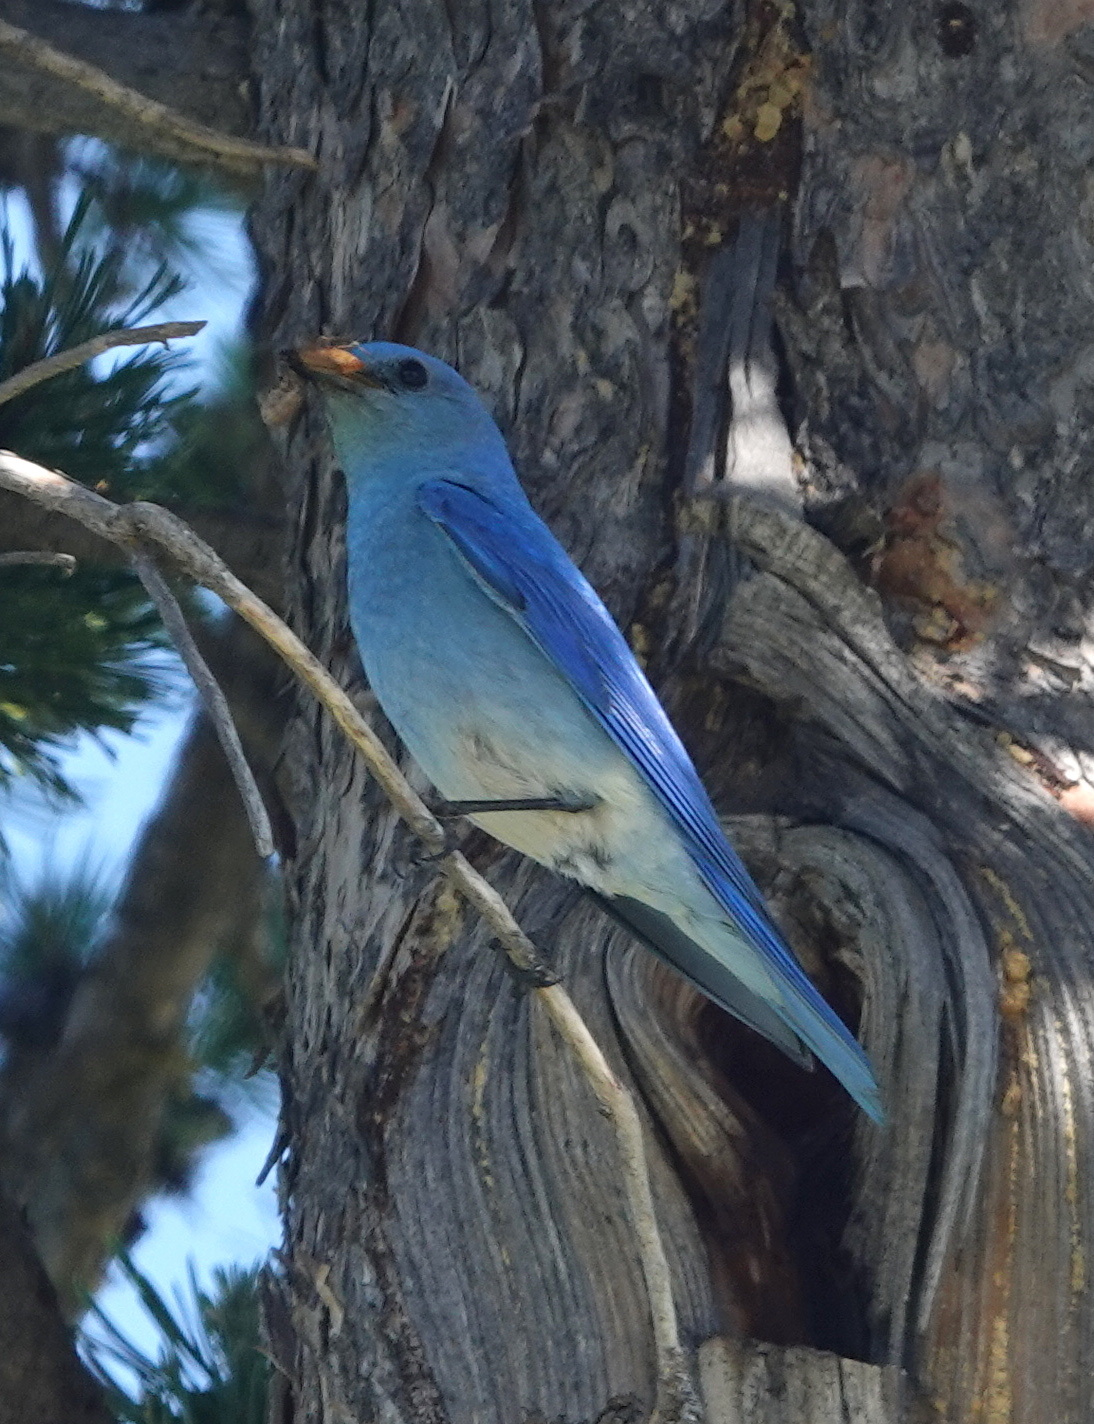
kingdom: Animalia
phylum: Chordata
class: Aves
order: Passeriformes
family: Turdidae
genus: Sialia
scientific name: Sialia currucoides
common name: Mountain bluebird
